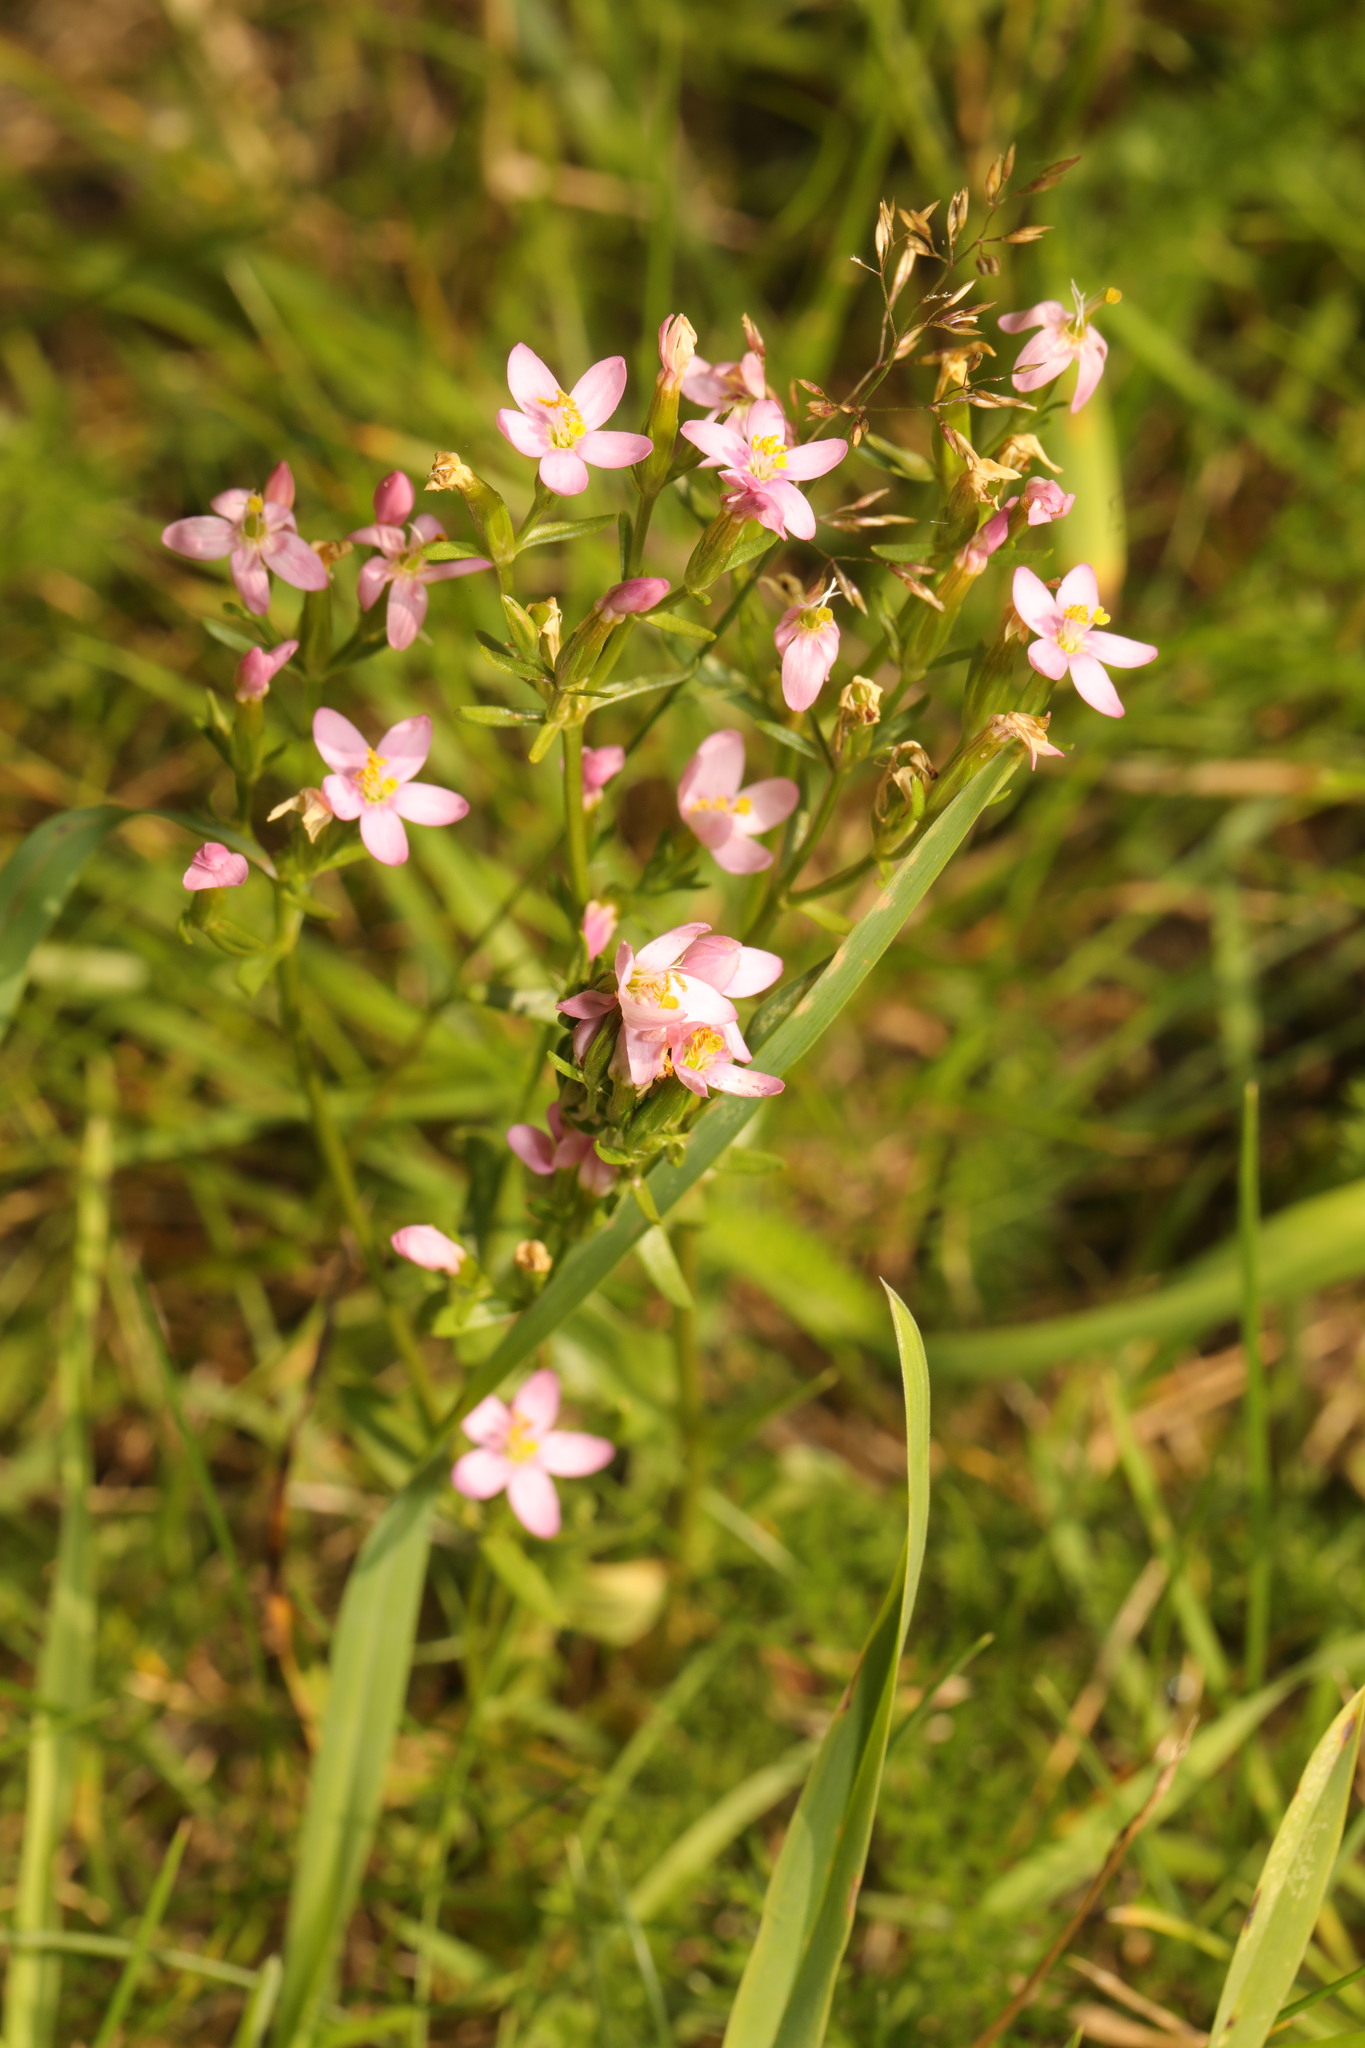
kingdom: Plantae
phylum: Tracheophyta
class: Magnoliopsida
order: Gentianales
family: Gentianaceae
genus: Centaurium
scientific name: Centaurium erythraea
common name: Common centaury
